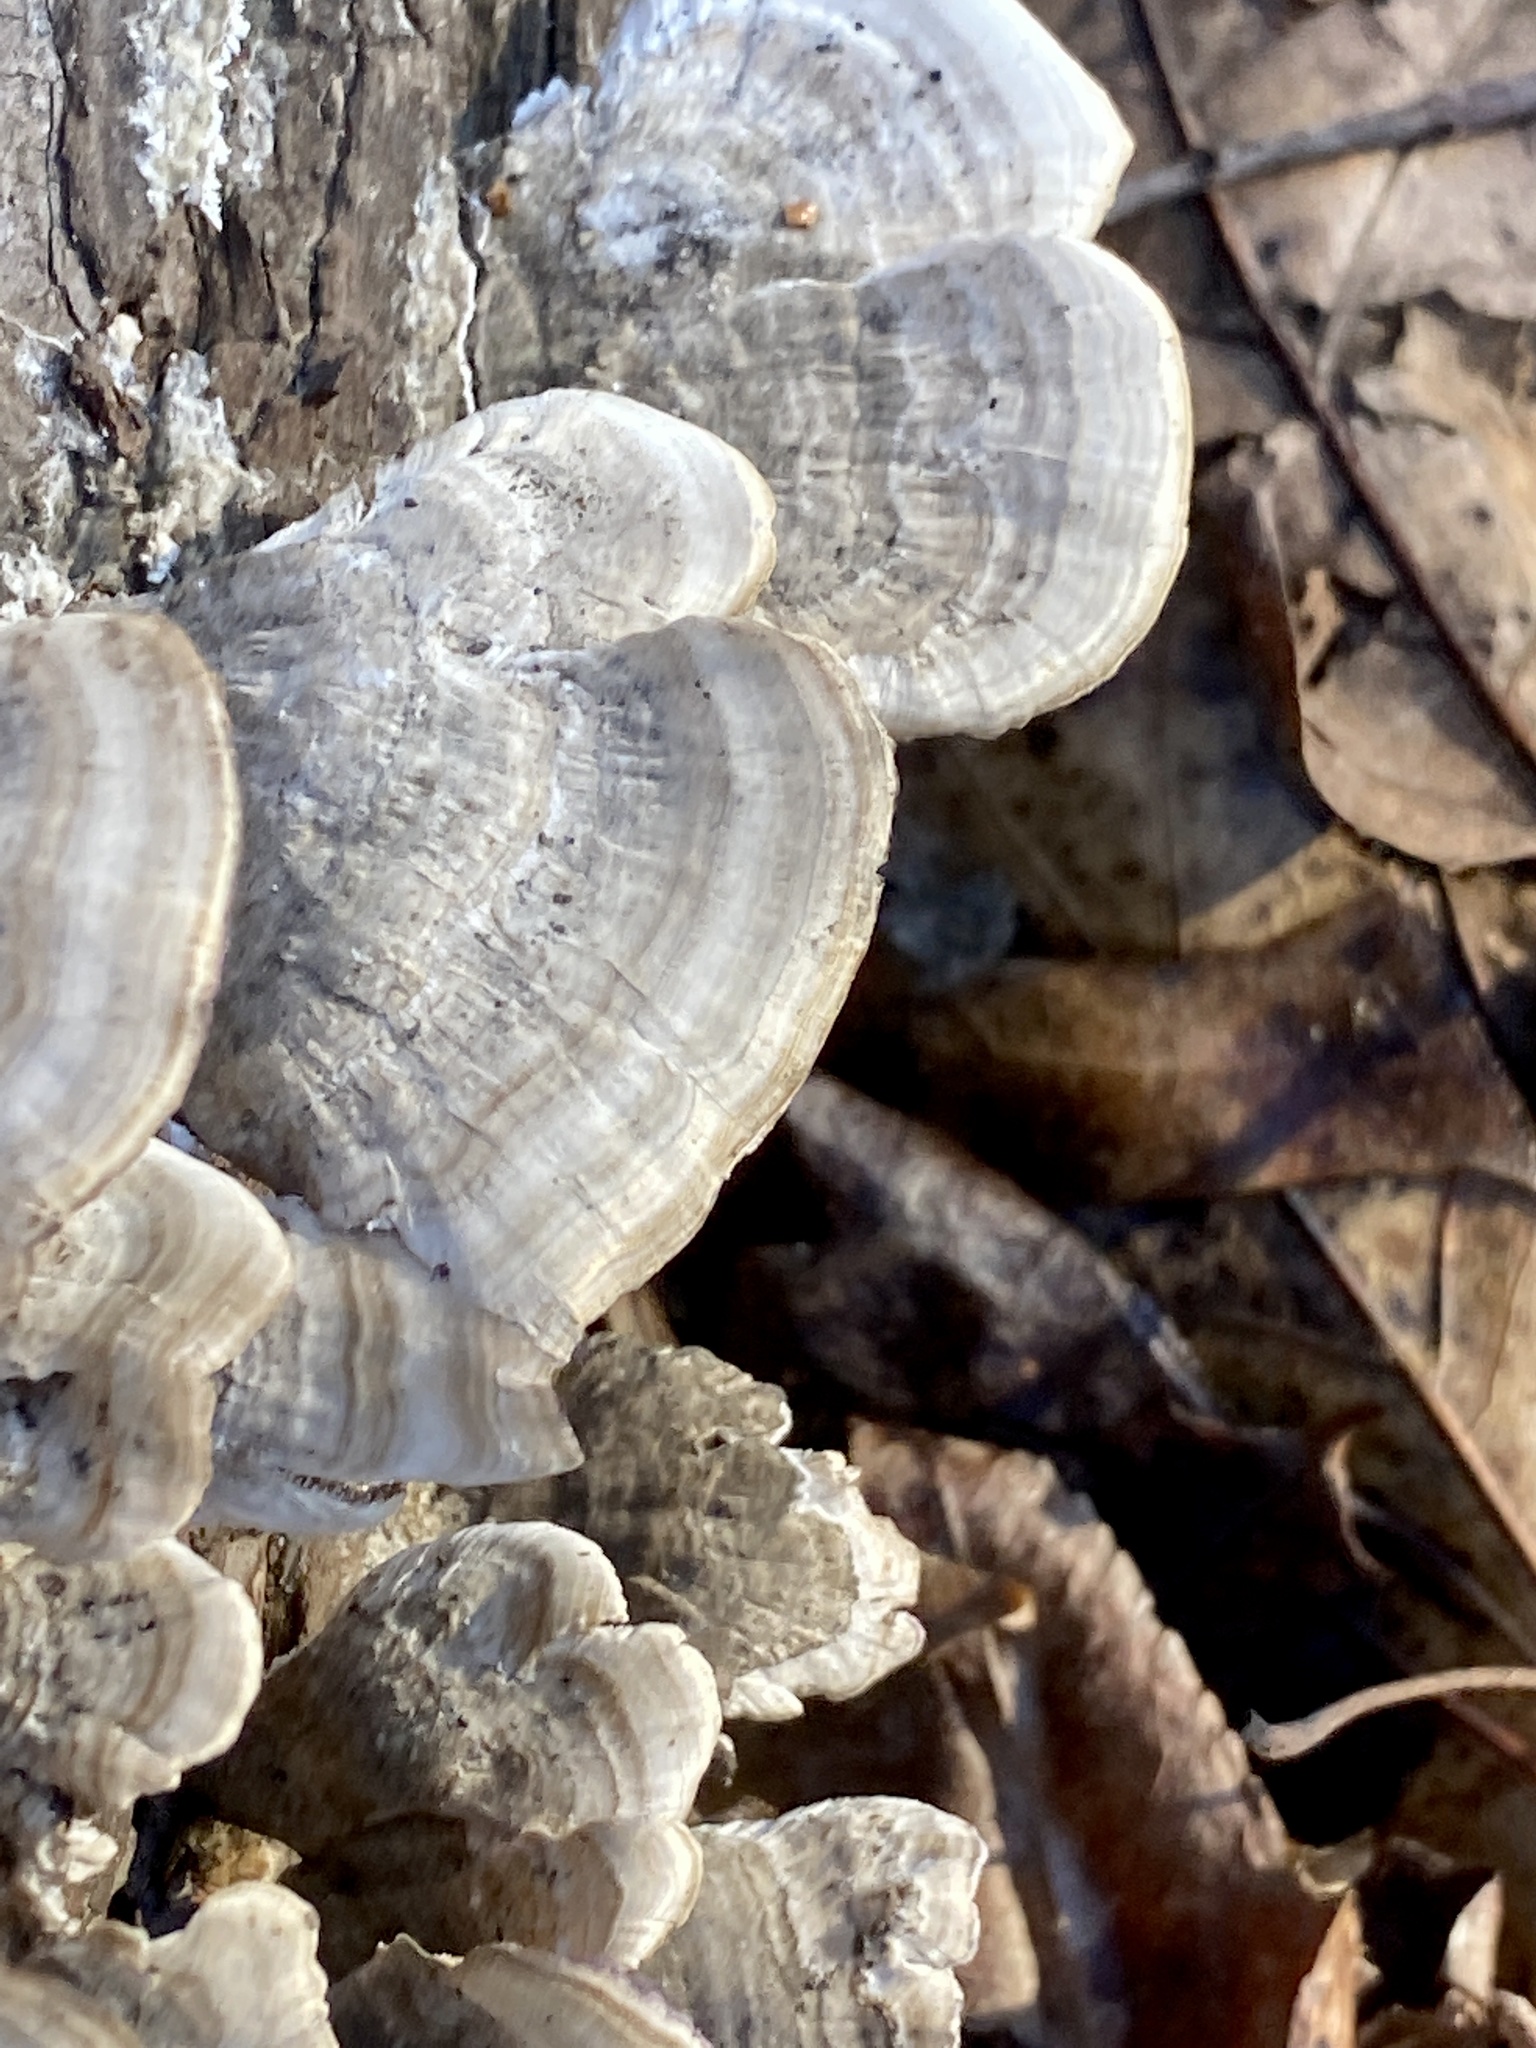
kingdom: Fungi
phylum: Basidiomycota
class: Agaricomycetes
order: Hymenochaetales
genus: Trichaptum
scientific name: Trichaptum biforme
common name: Violet-toothed polypore
